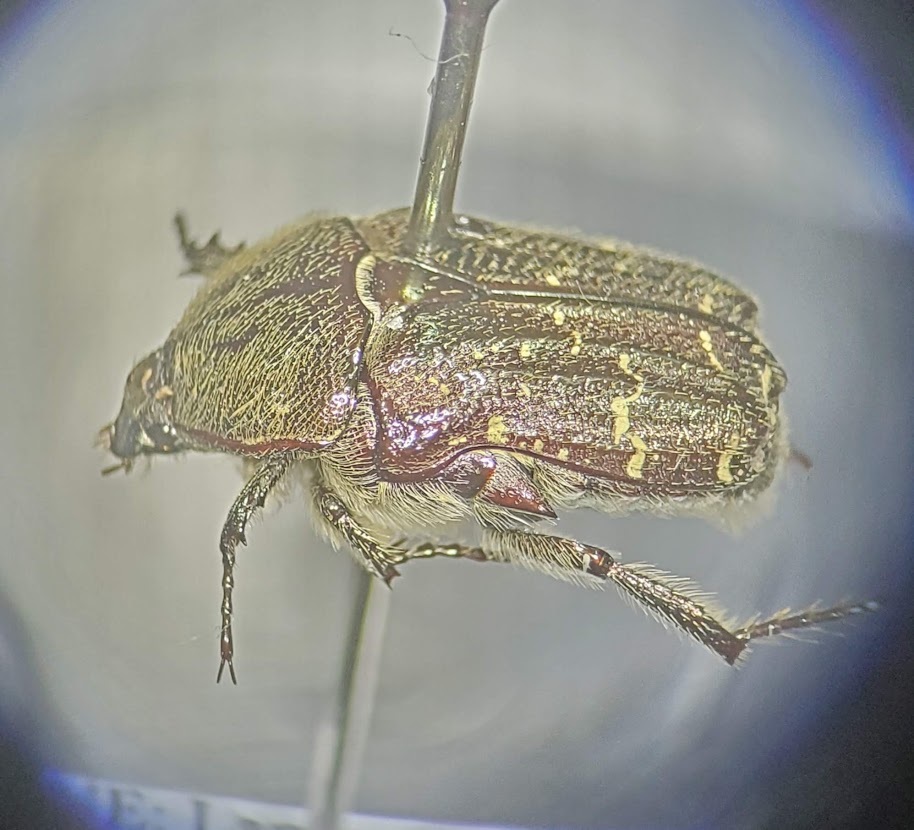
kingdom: Animalia
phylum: Arthropoda
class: Insecta
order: Coleoptera
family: Scarabaeidae
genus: Euphoria
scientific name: Euphoria sepulcralis
